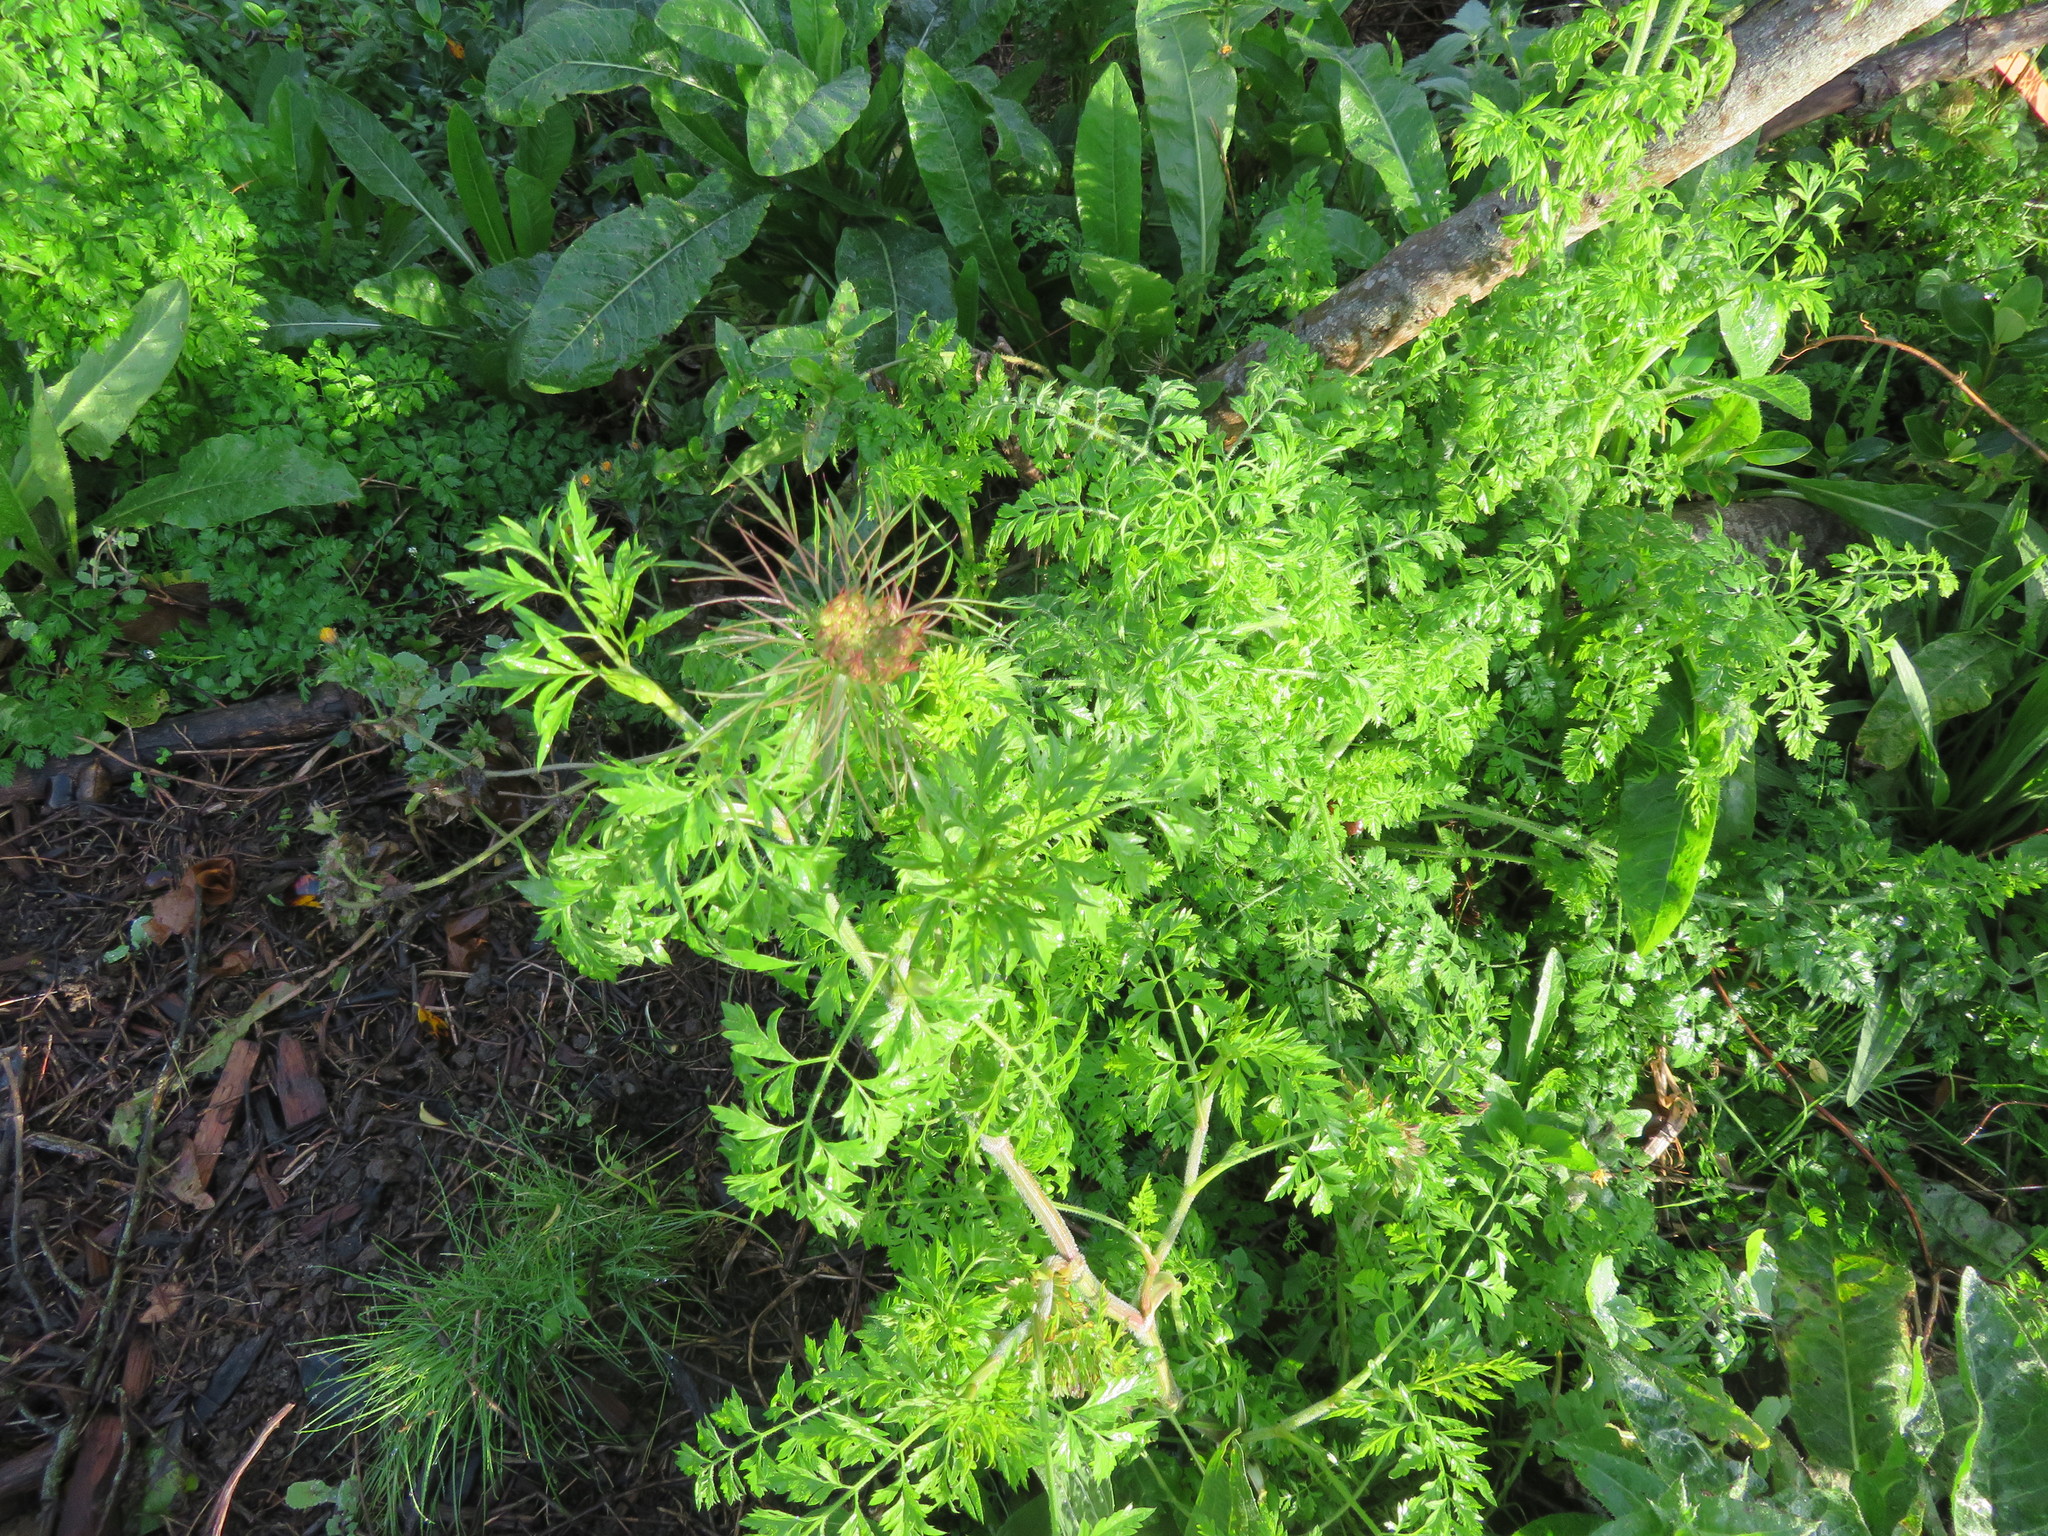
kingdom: Plantae
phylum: Tracheophyta
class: Magnoliopsida
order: Apiales
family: Apiaceae
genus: Daucus
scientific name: Daucus carota
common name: Wild carrot
